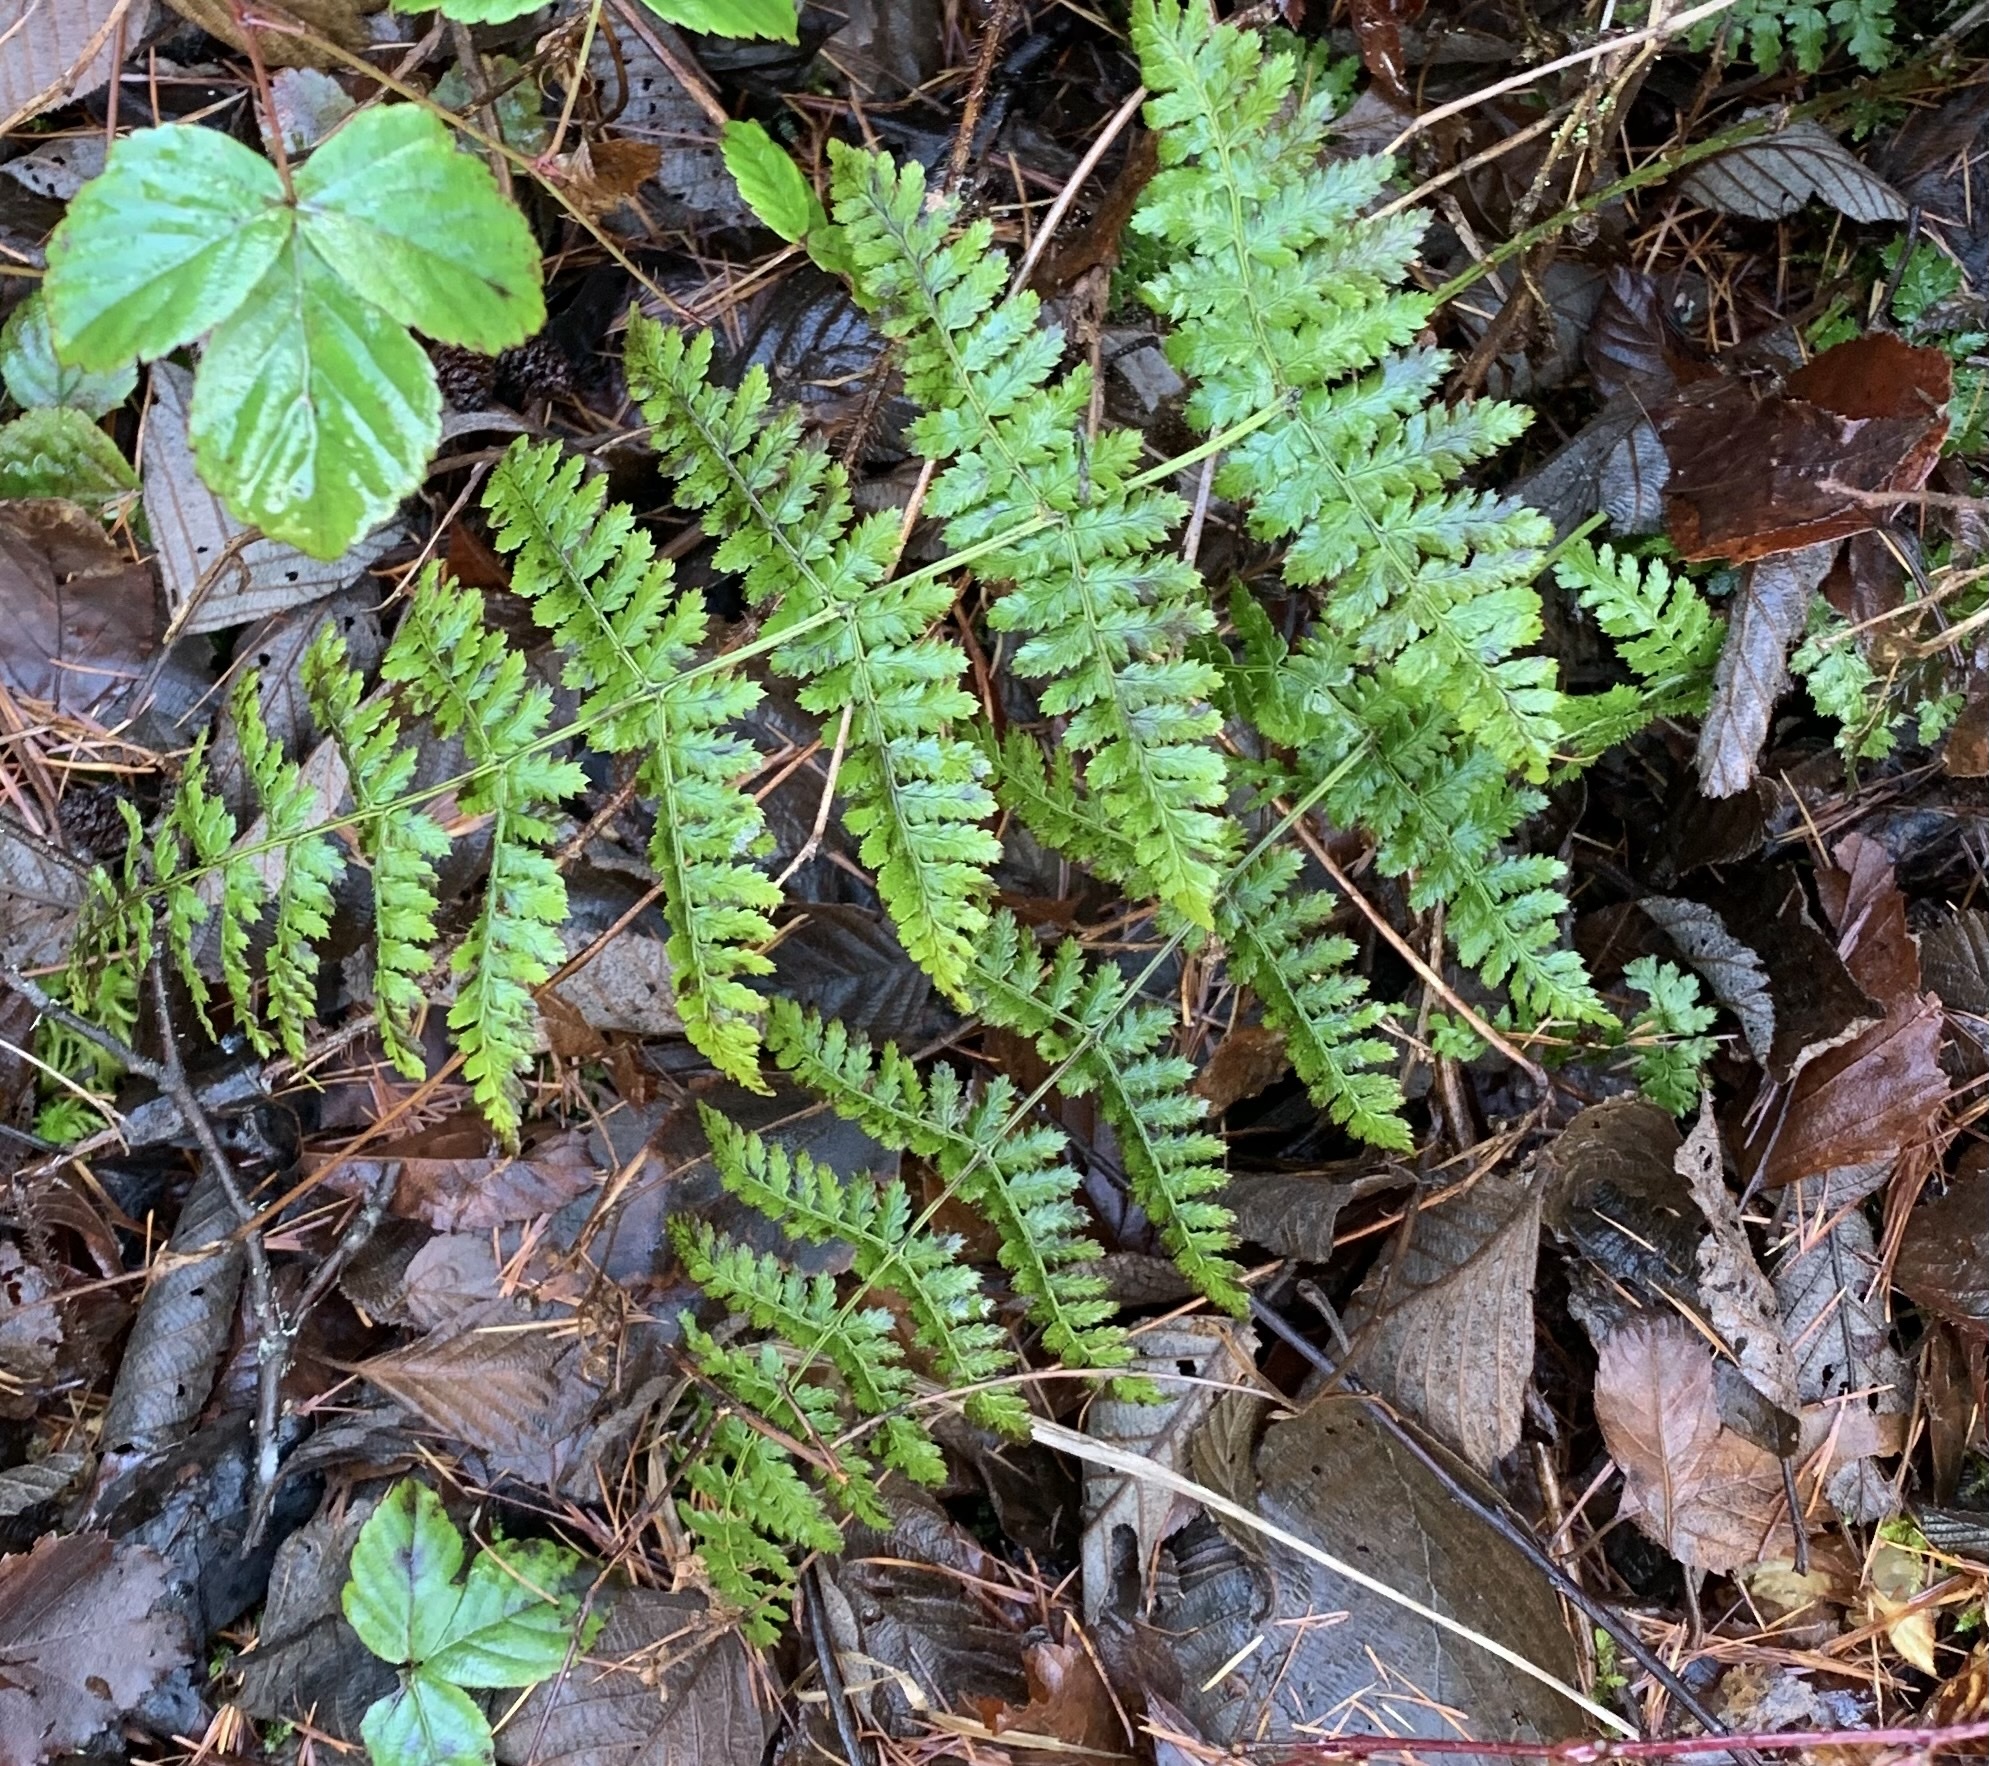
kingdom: Plantae
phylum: Tracheophyta
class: Polypodiopsida
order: Polypodiales
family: Dryopteridaceae
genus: Dryopteris
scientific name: Dryopteris intermedia
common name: Evergreen wood fern
